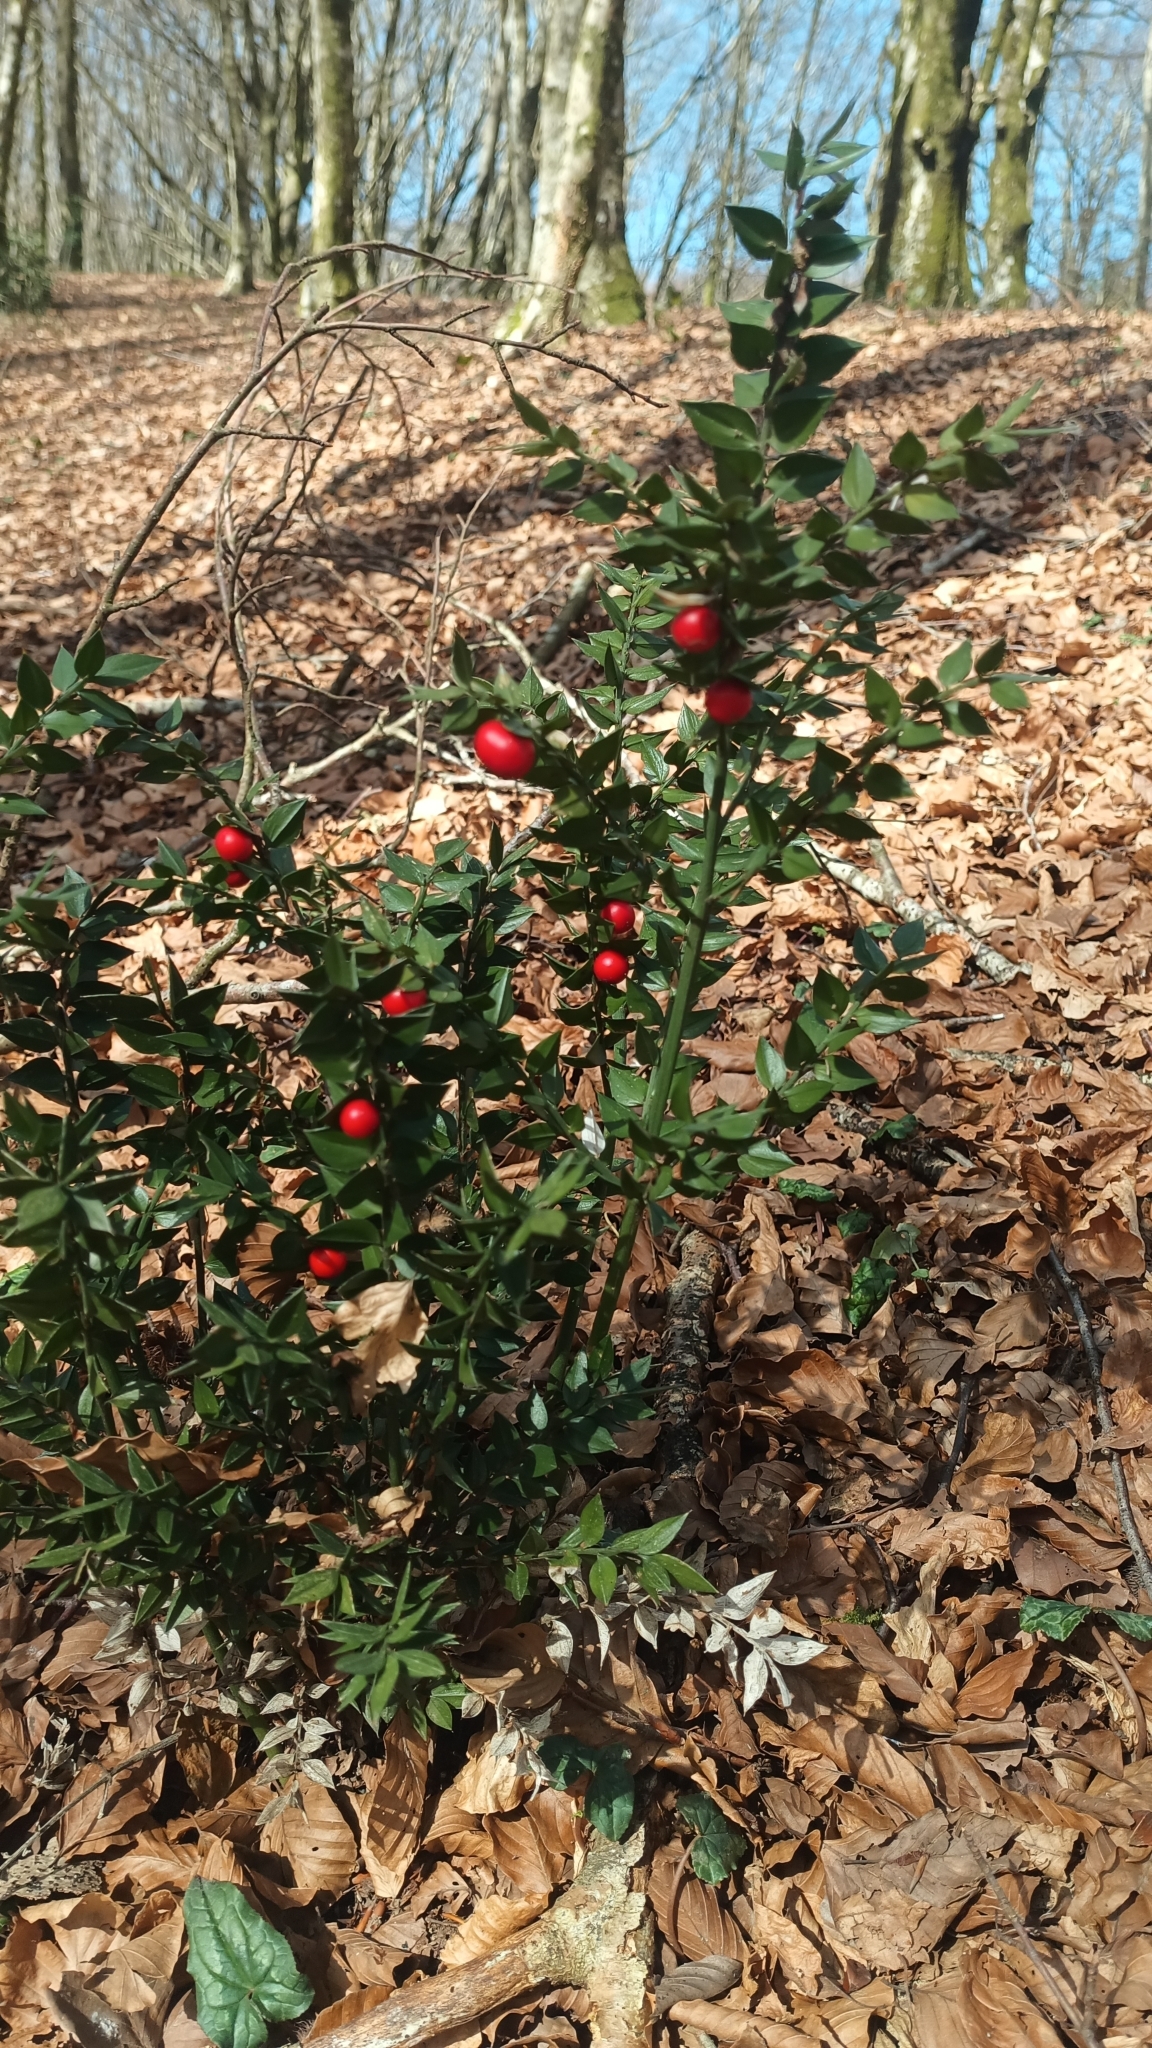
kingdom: Plantae
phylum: Tracheophyta
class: Liliopsida
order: Asparagales
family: Asparagaceae
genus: Ruscus
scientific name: Ruscus aculeatus
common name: Butcher's-broom
